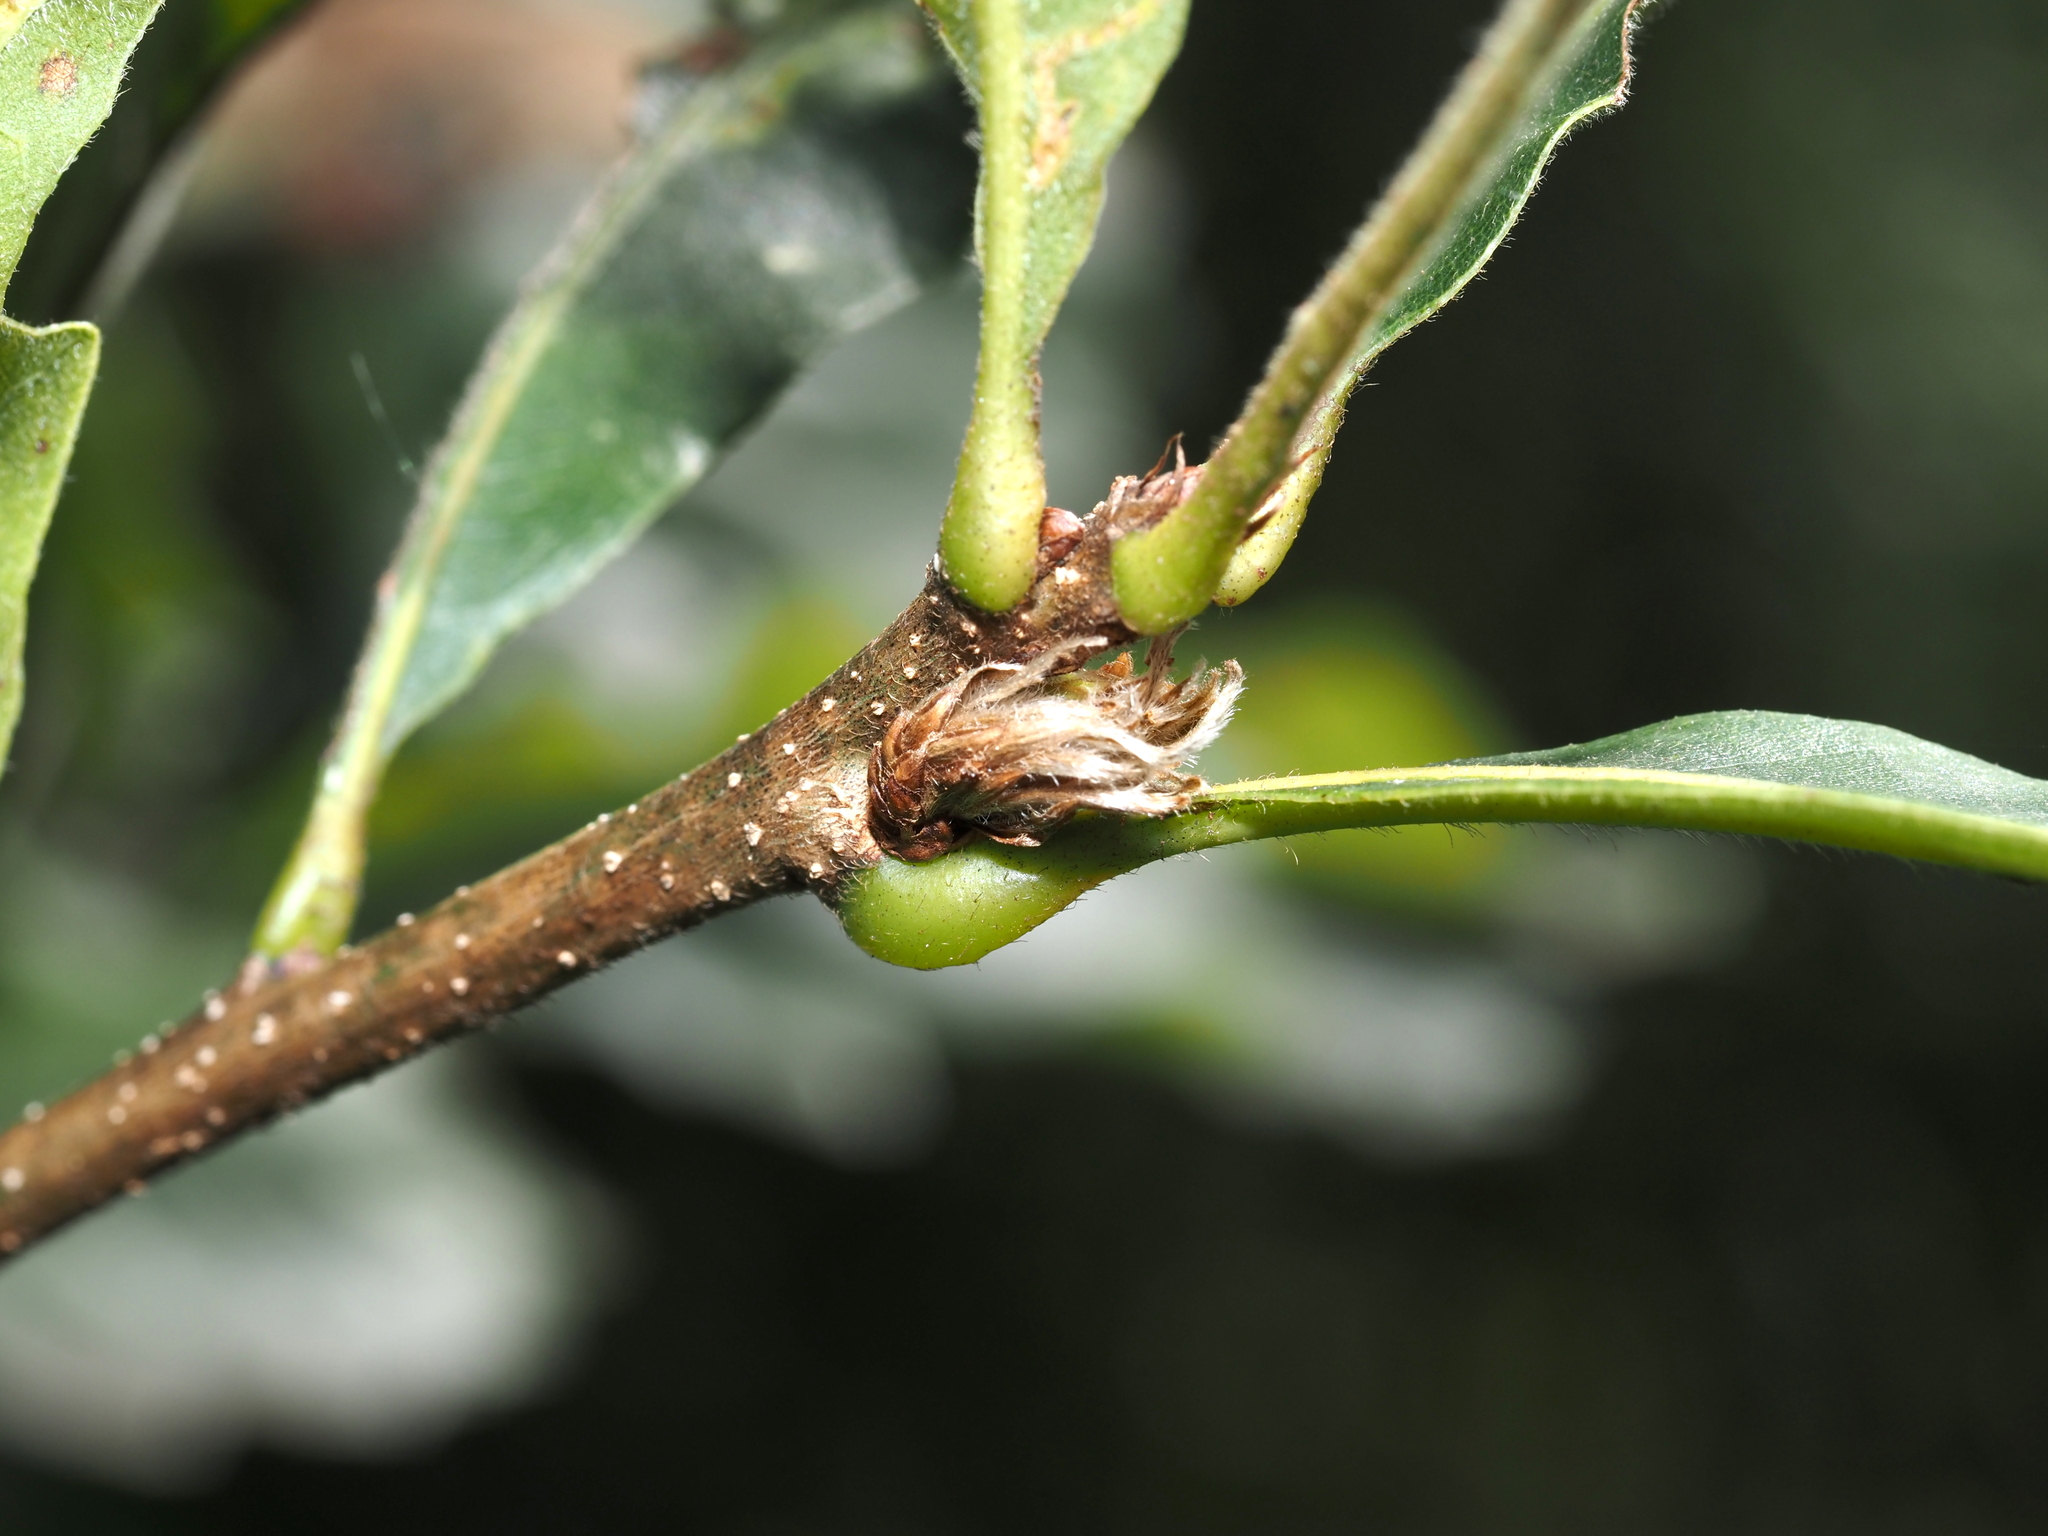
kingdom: Animalia
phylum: Arthropoda
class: Insecta
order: Hymenoptera
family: Cynipidae
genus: Andricus
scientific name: Andricus
